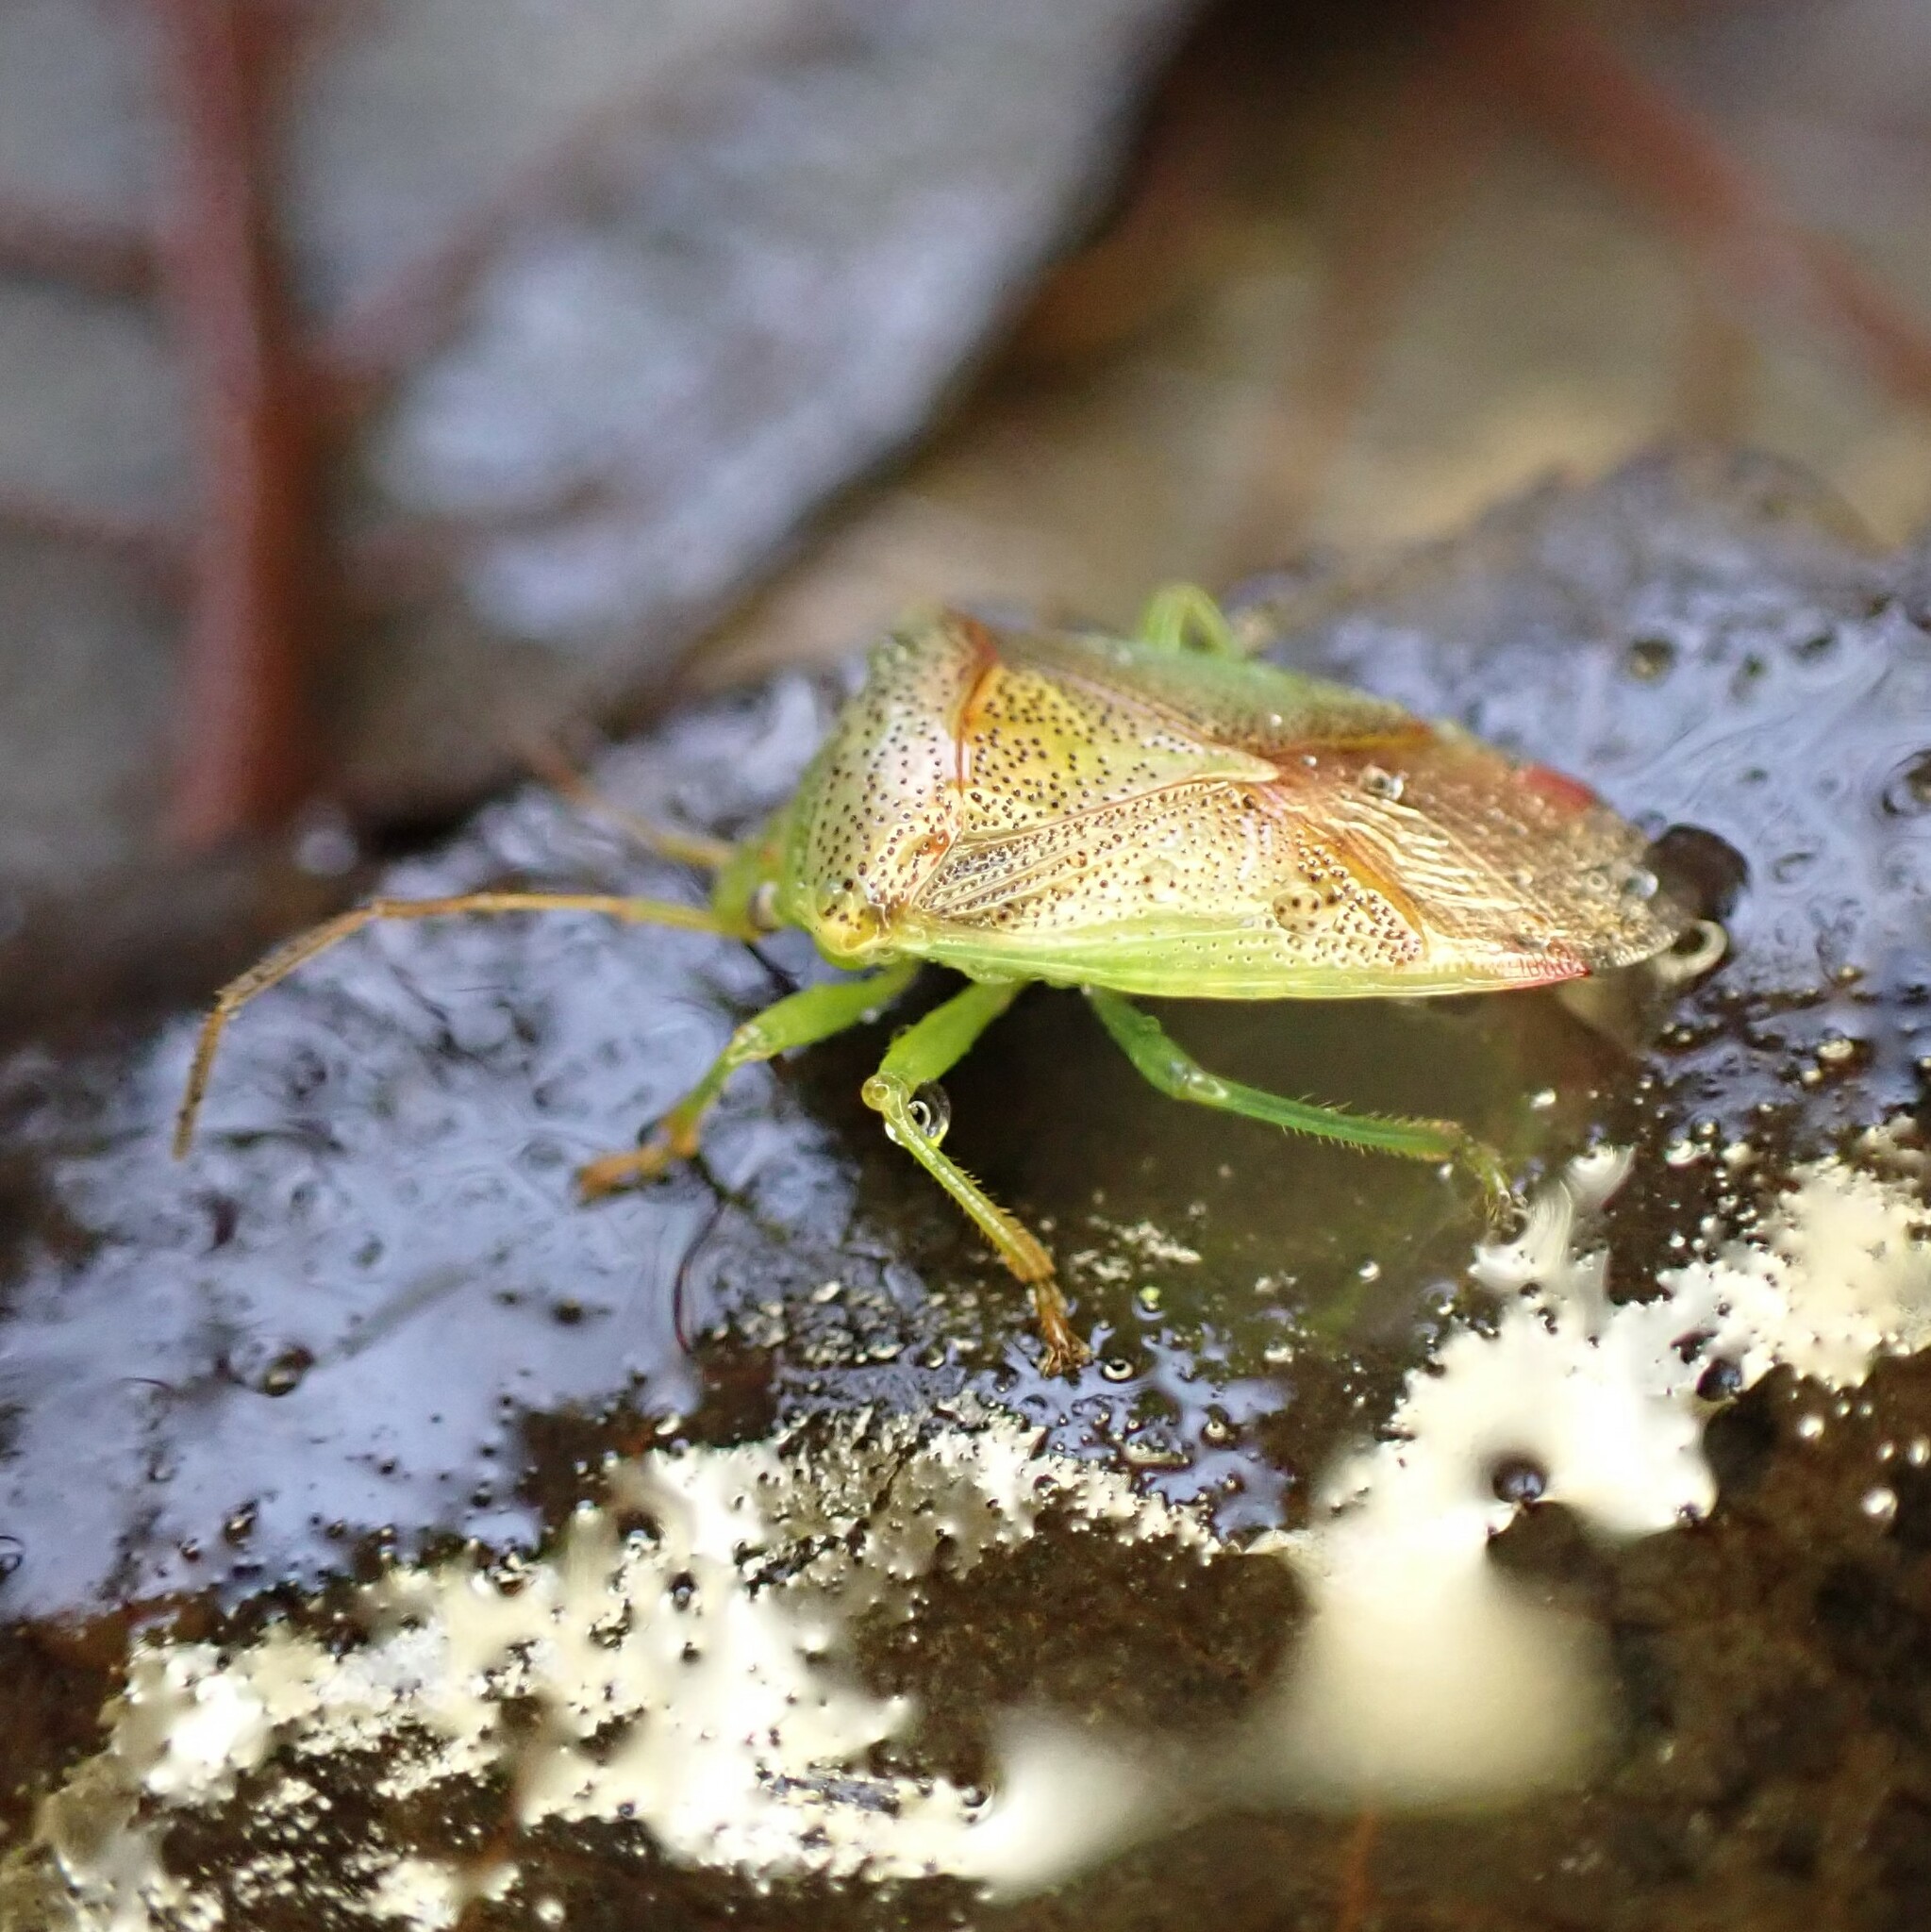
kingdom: Animalia
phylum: Arthropoda
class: Insecta
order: Hemiptera
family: Acanthosomatidae
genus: Elasmostethus
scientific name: Elasmostethus cruciatus
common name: Red-cross shield bug
